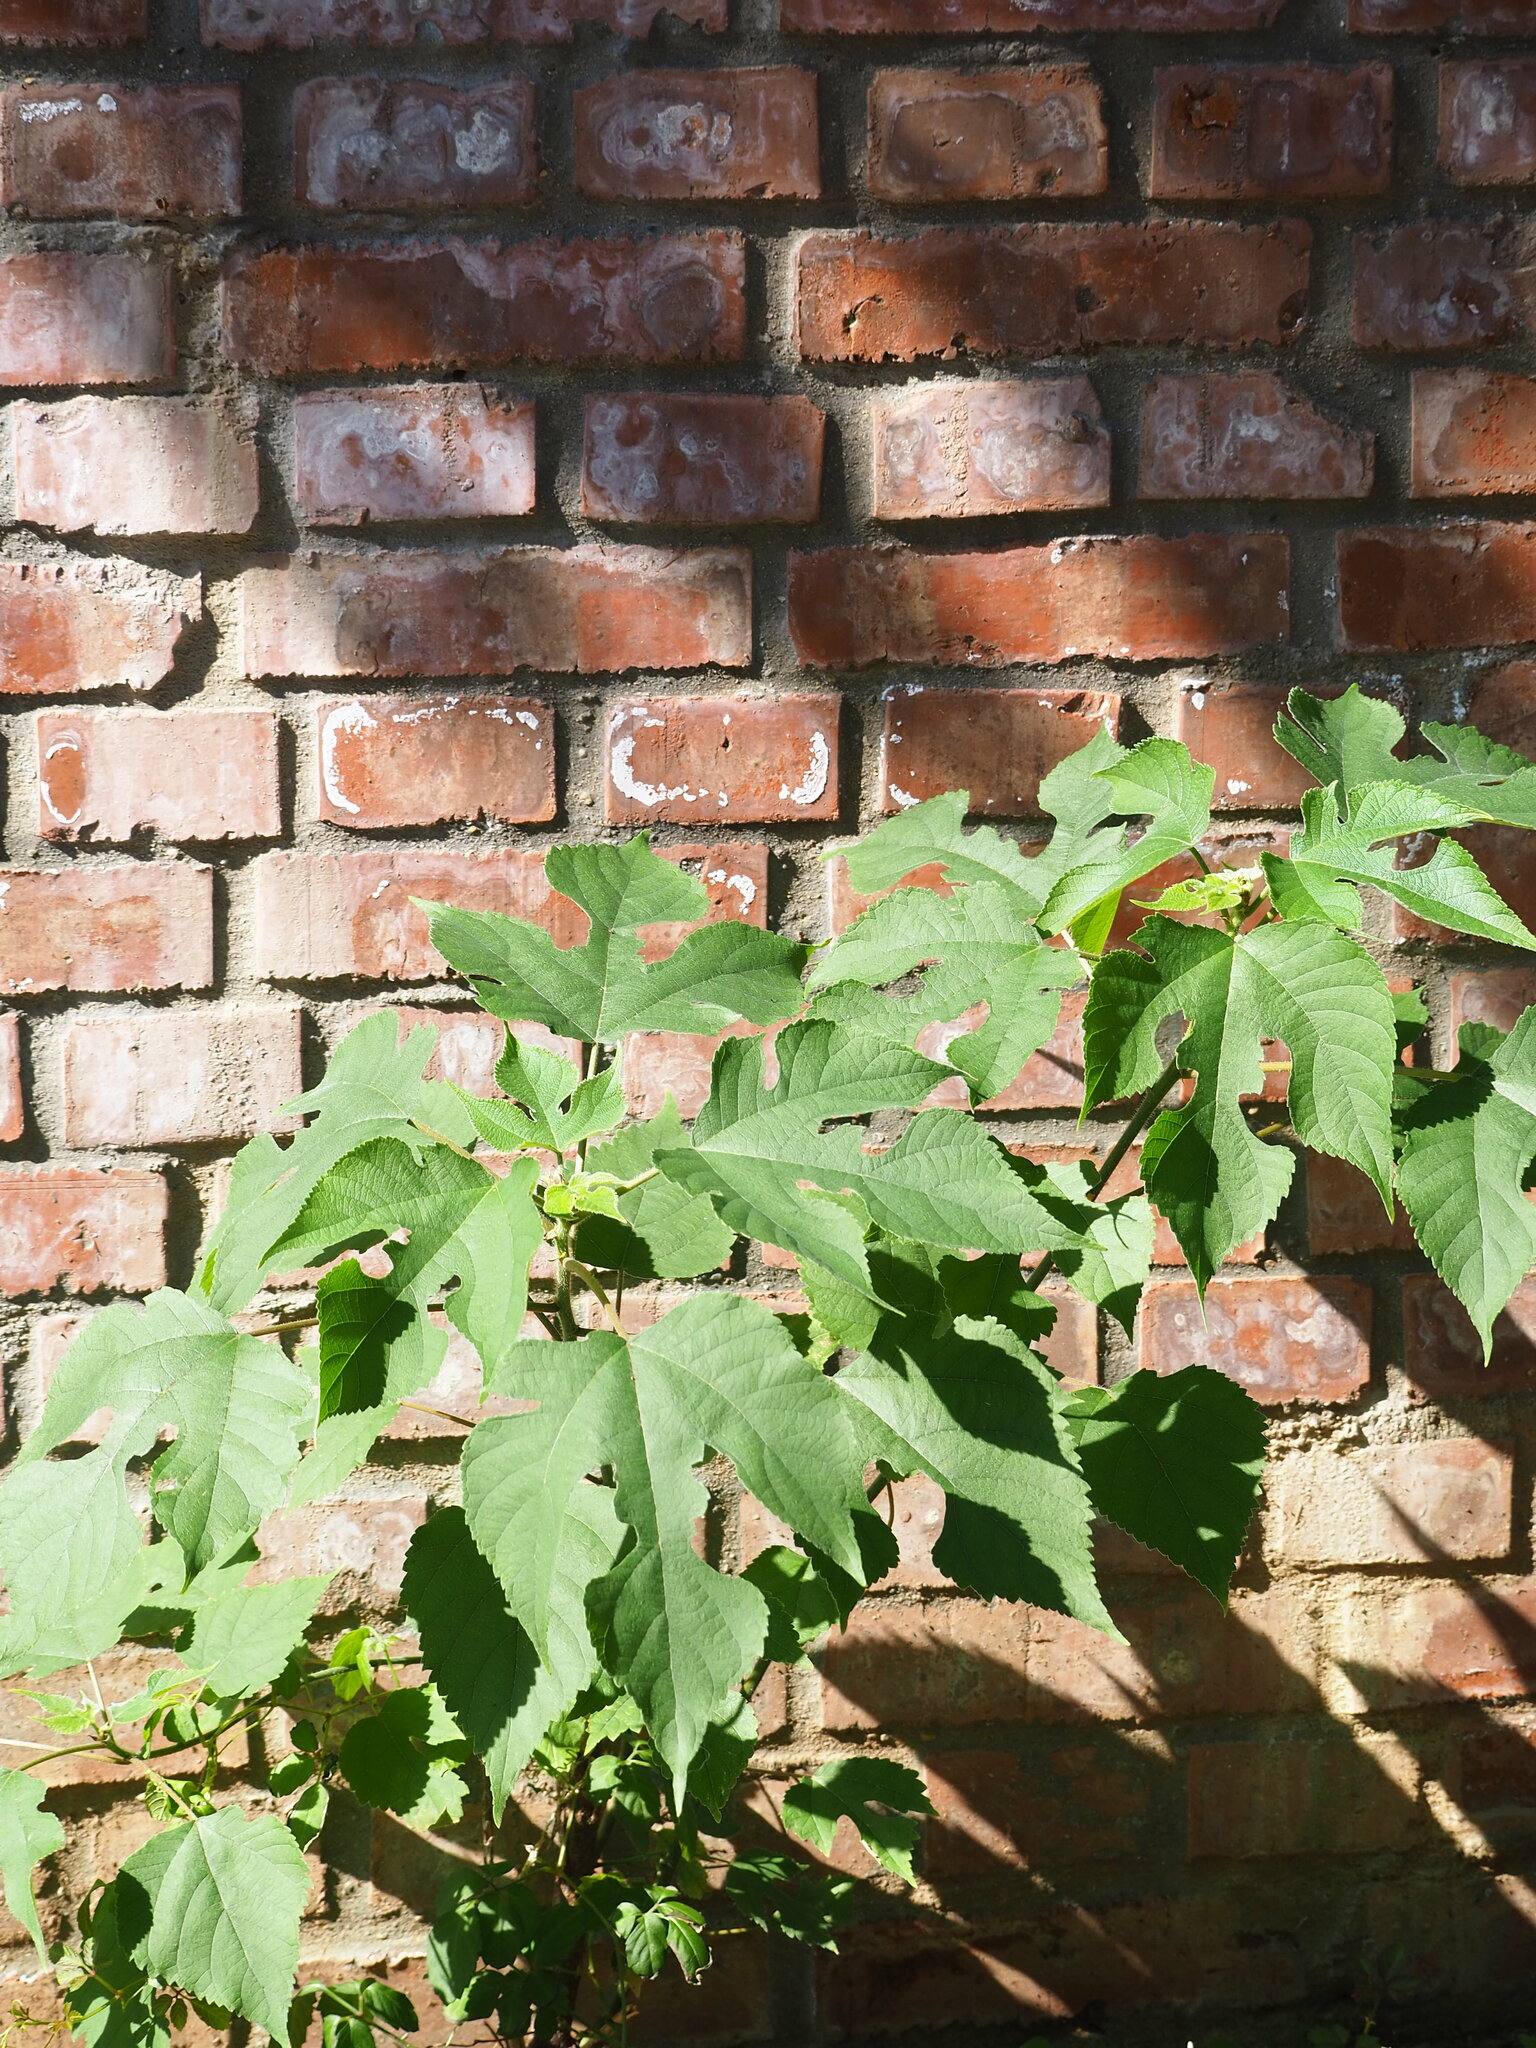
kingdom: Plantae
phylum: Tracheophyta
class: Magnoliopsida
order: Rosales
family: Moraceae
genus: Broussonetia
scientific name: Broussonetia papyrifera
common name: Paper mulberry
